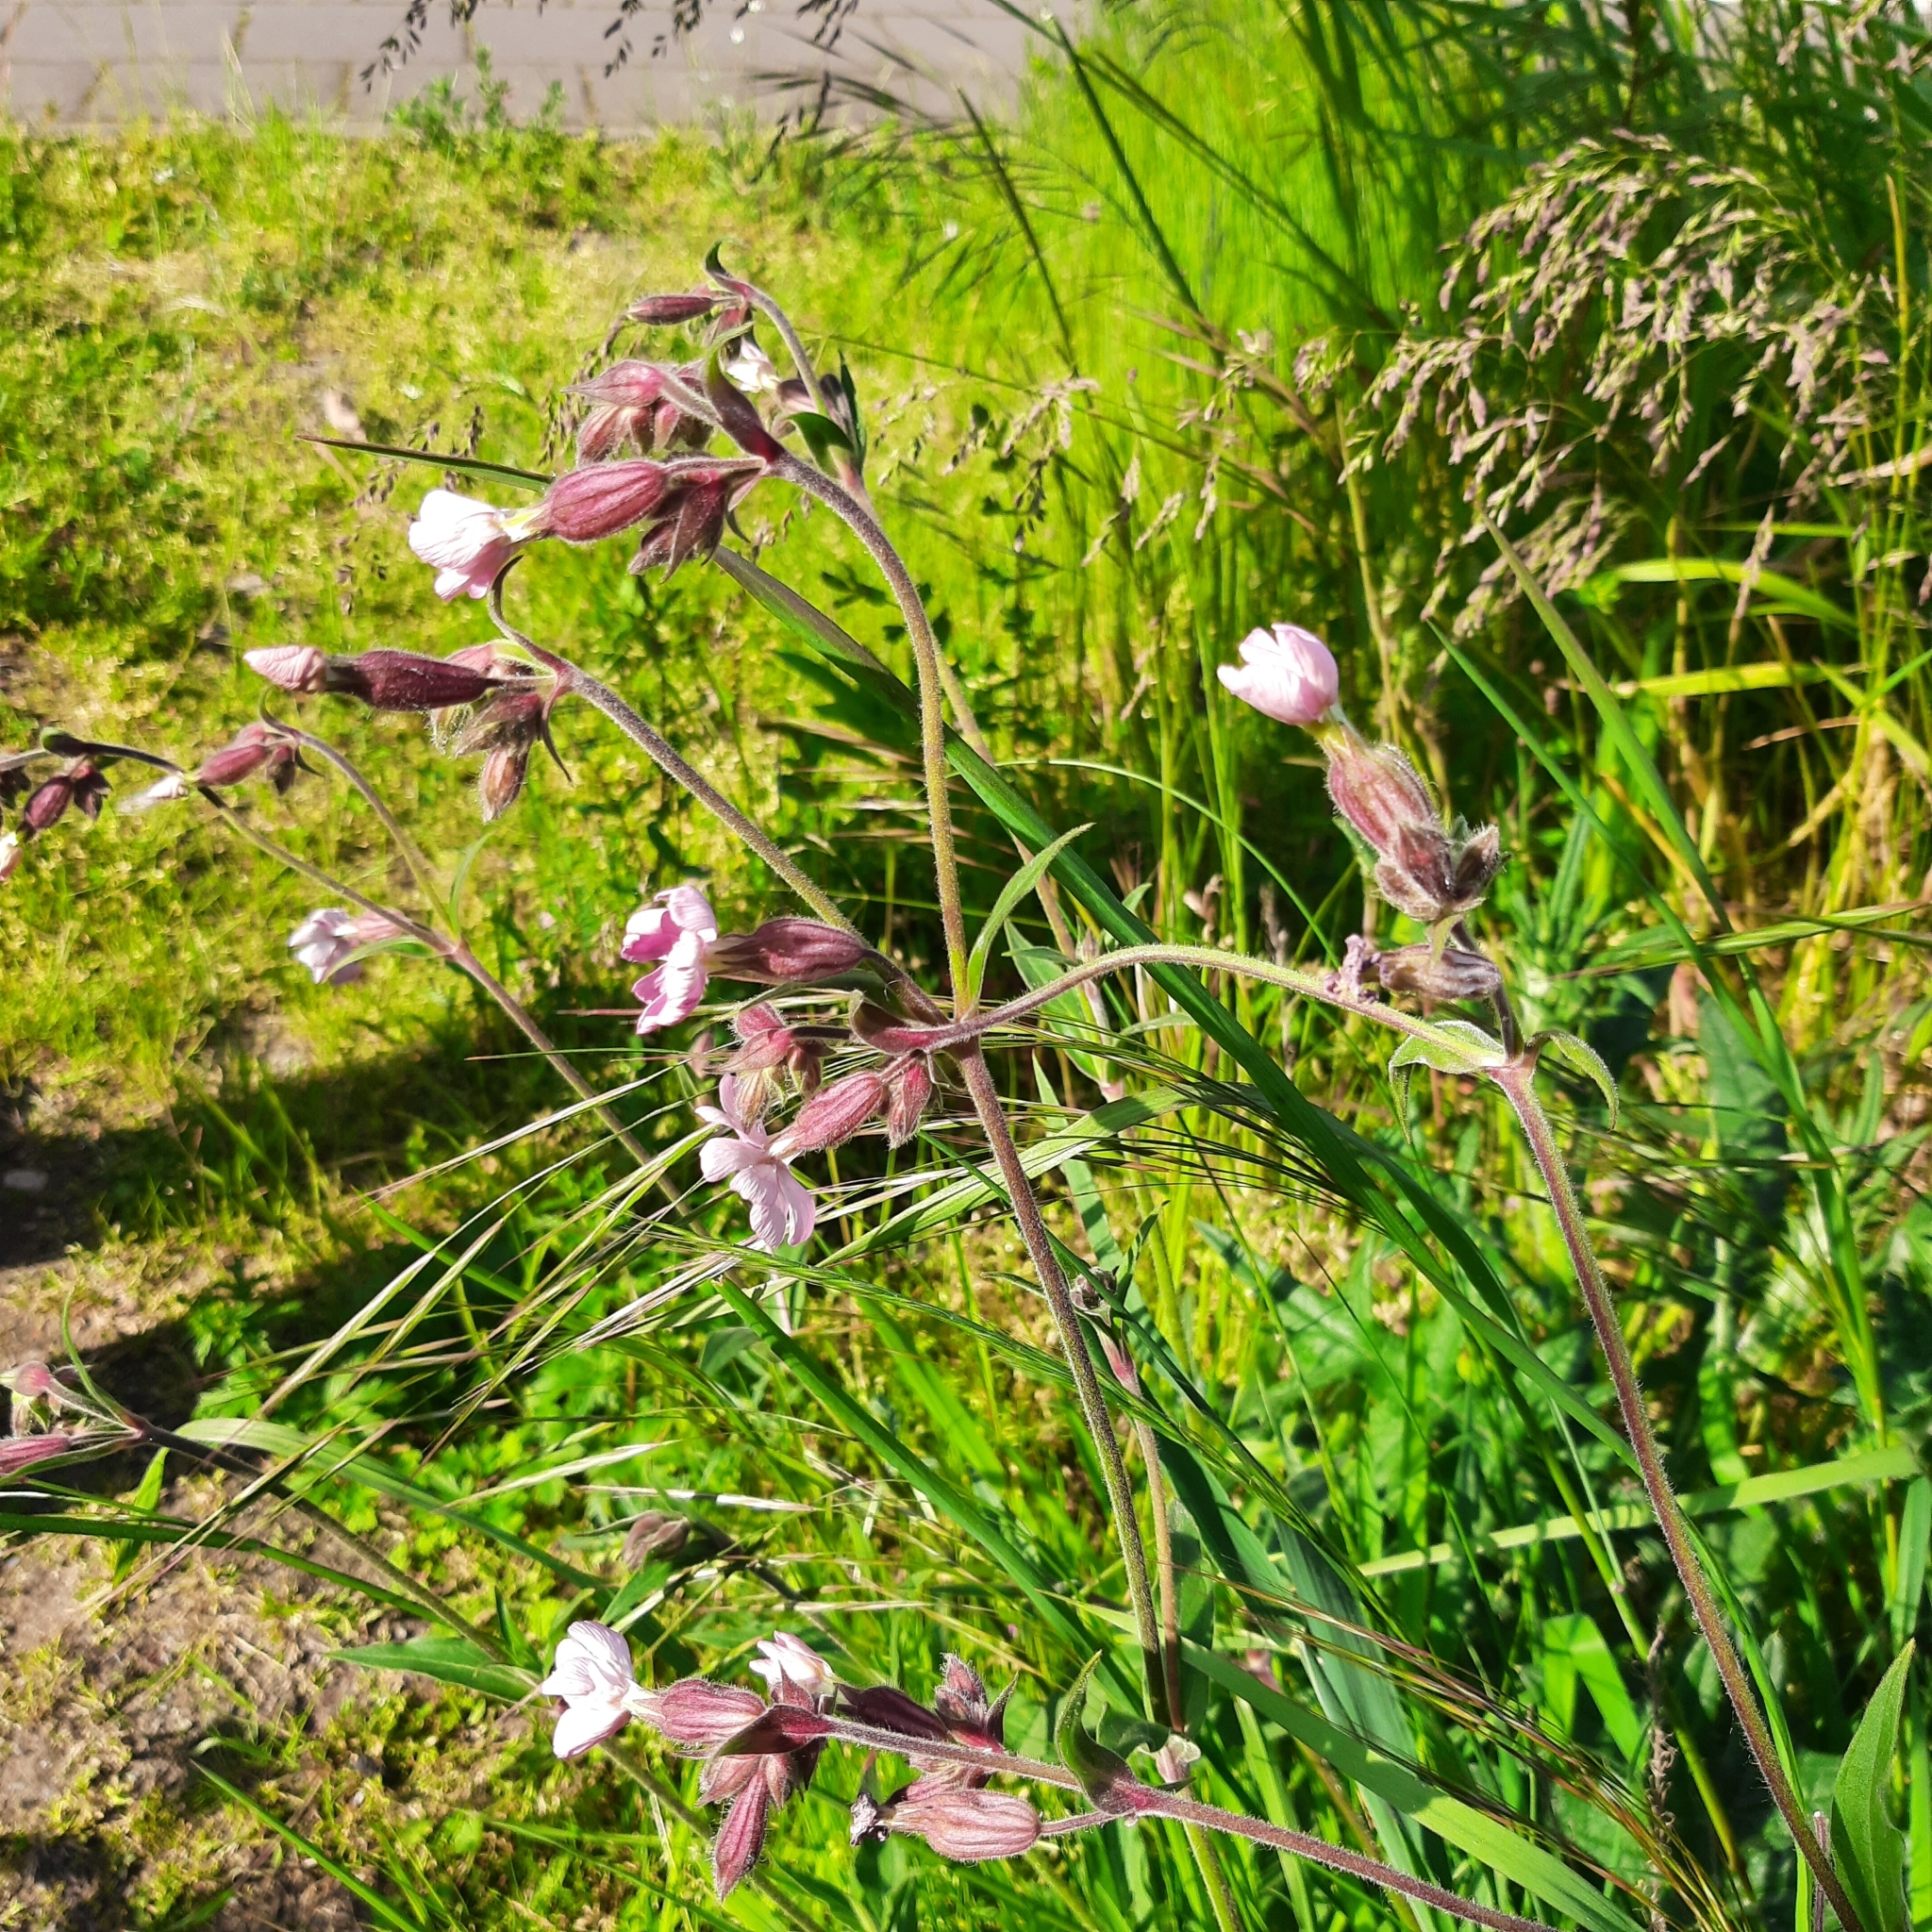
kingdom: Plantae
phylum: Tracheophyta
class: Magnoliopsida
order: Caryophyllales
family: Caryophyllaceae
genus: Silene
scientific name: Silene latifolia
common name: White campion
